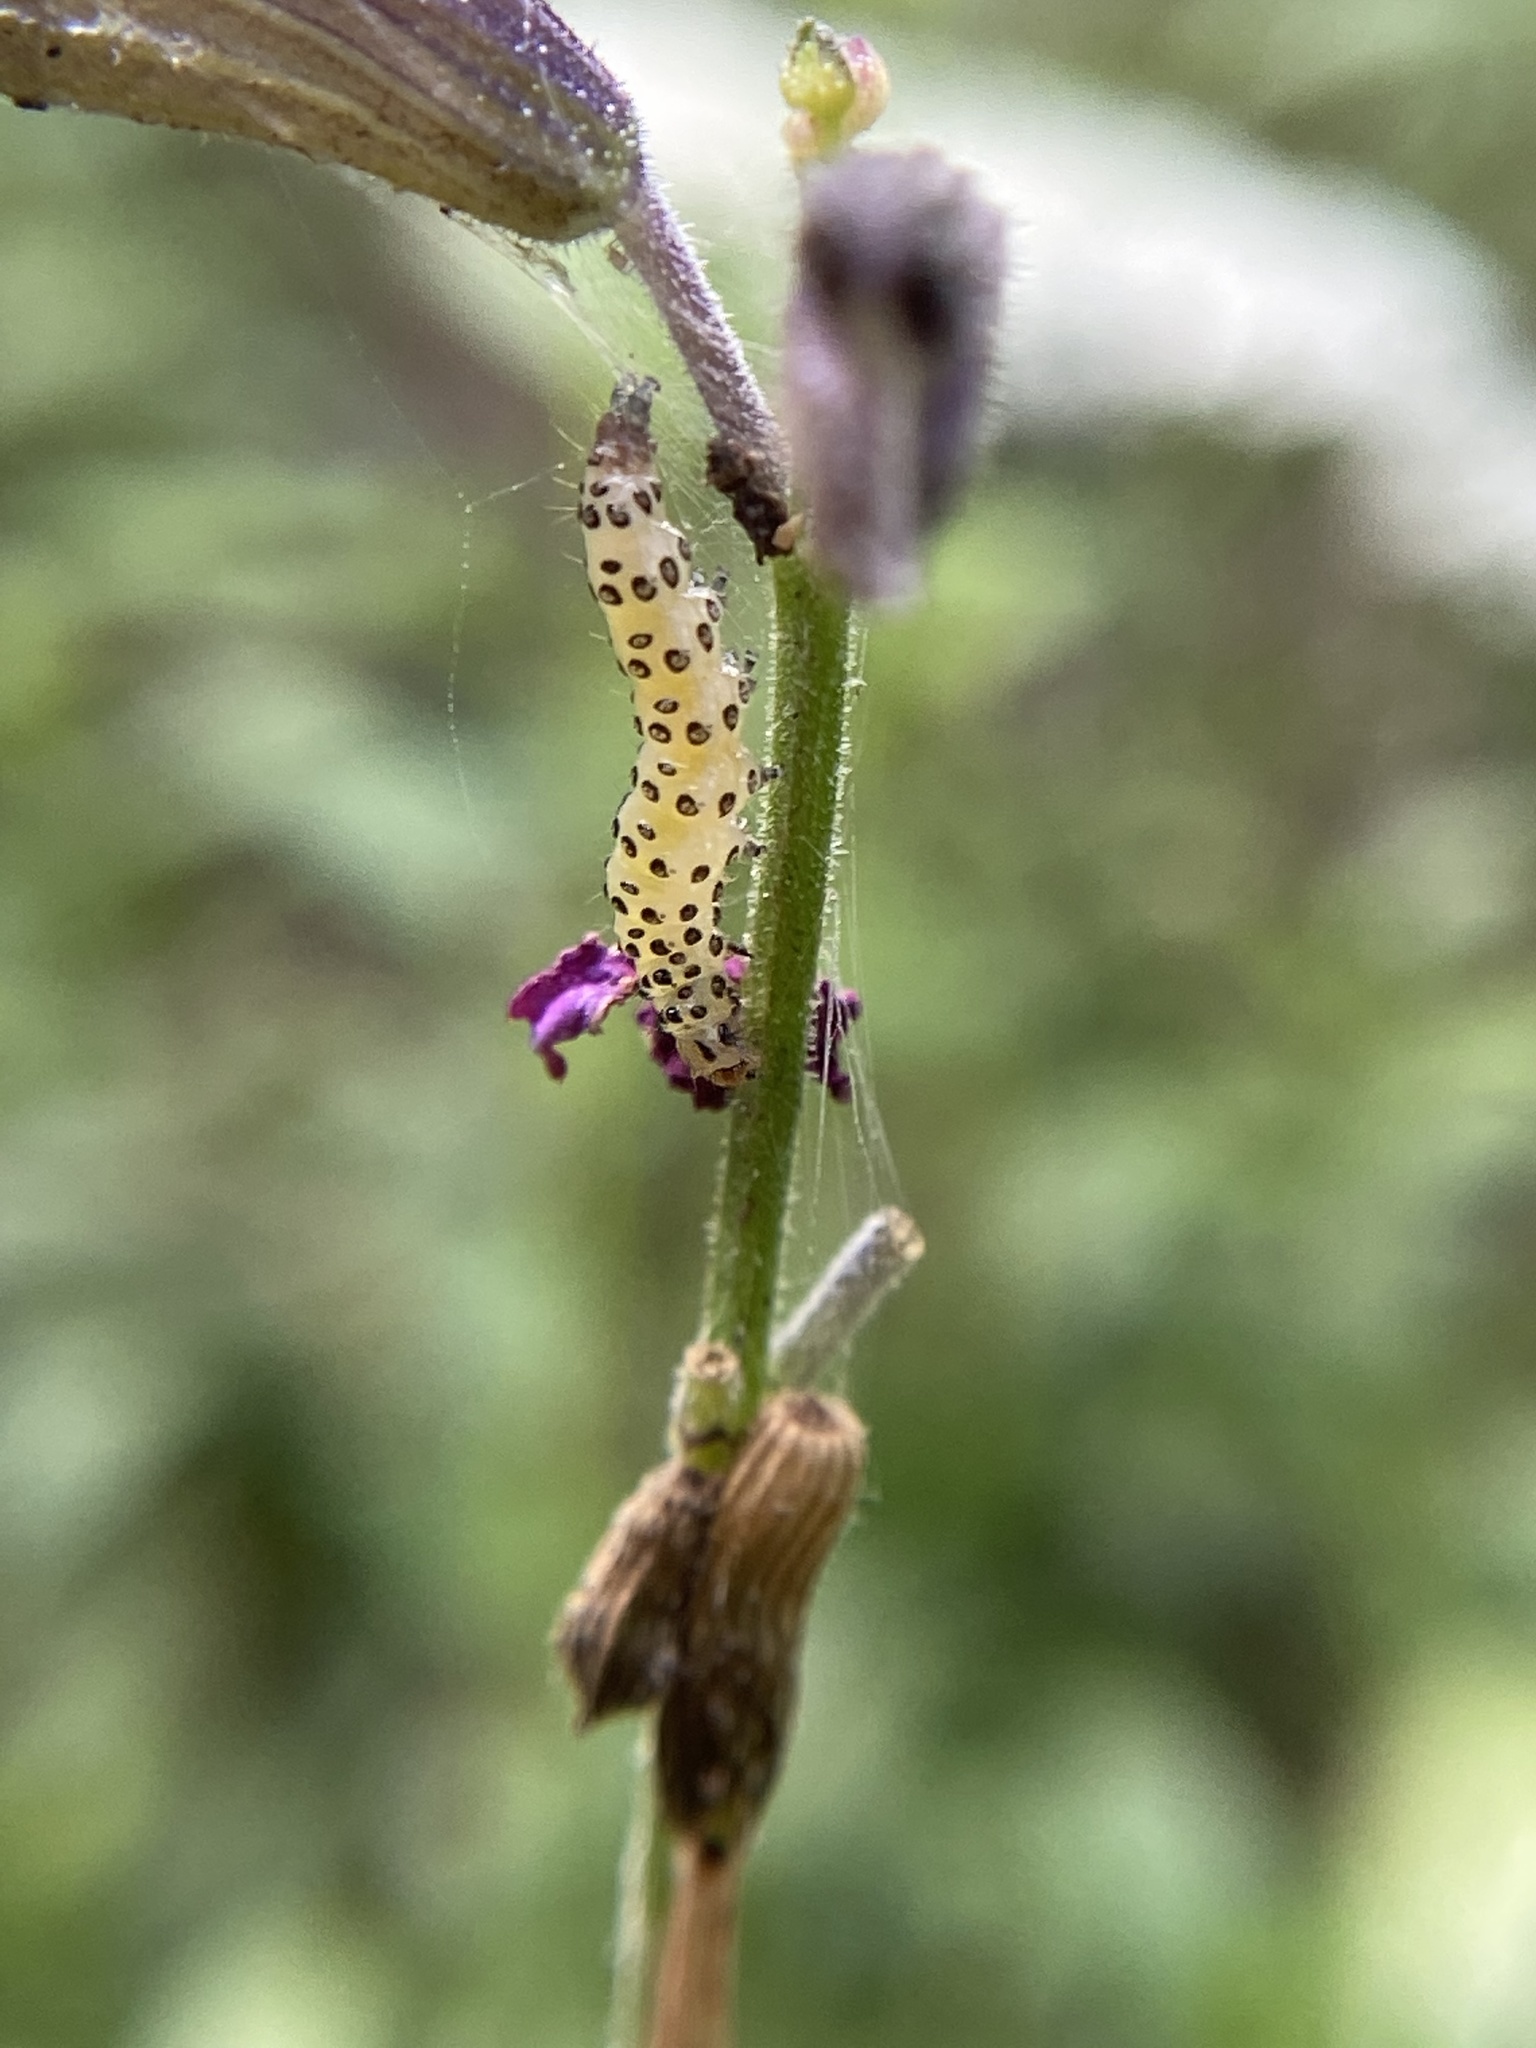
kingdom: Animalia
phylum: Arthropoda
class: Insecta
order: Lepidoptera
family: Crambidae
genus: Pyrausta
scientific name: Pyrausta inornatalis
